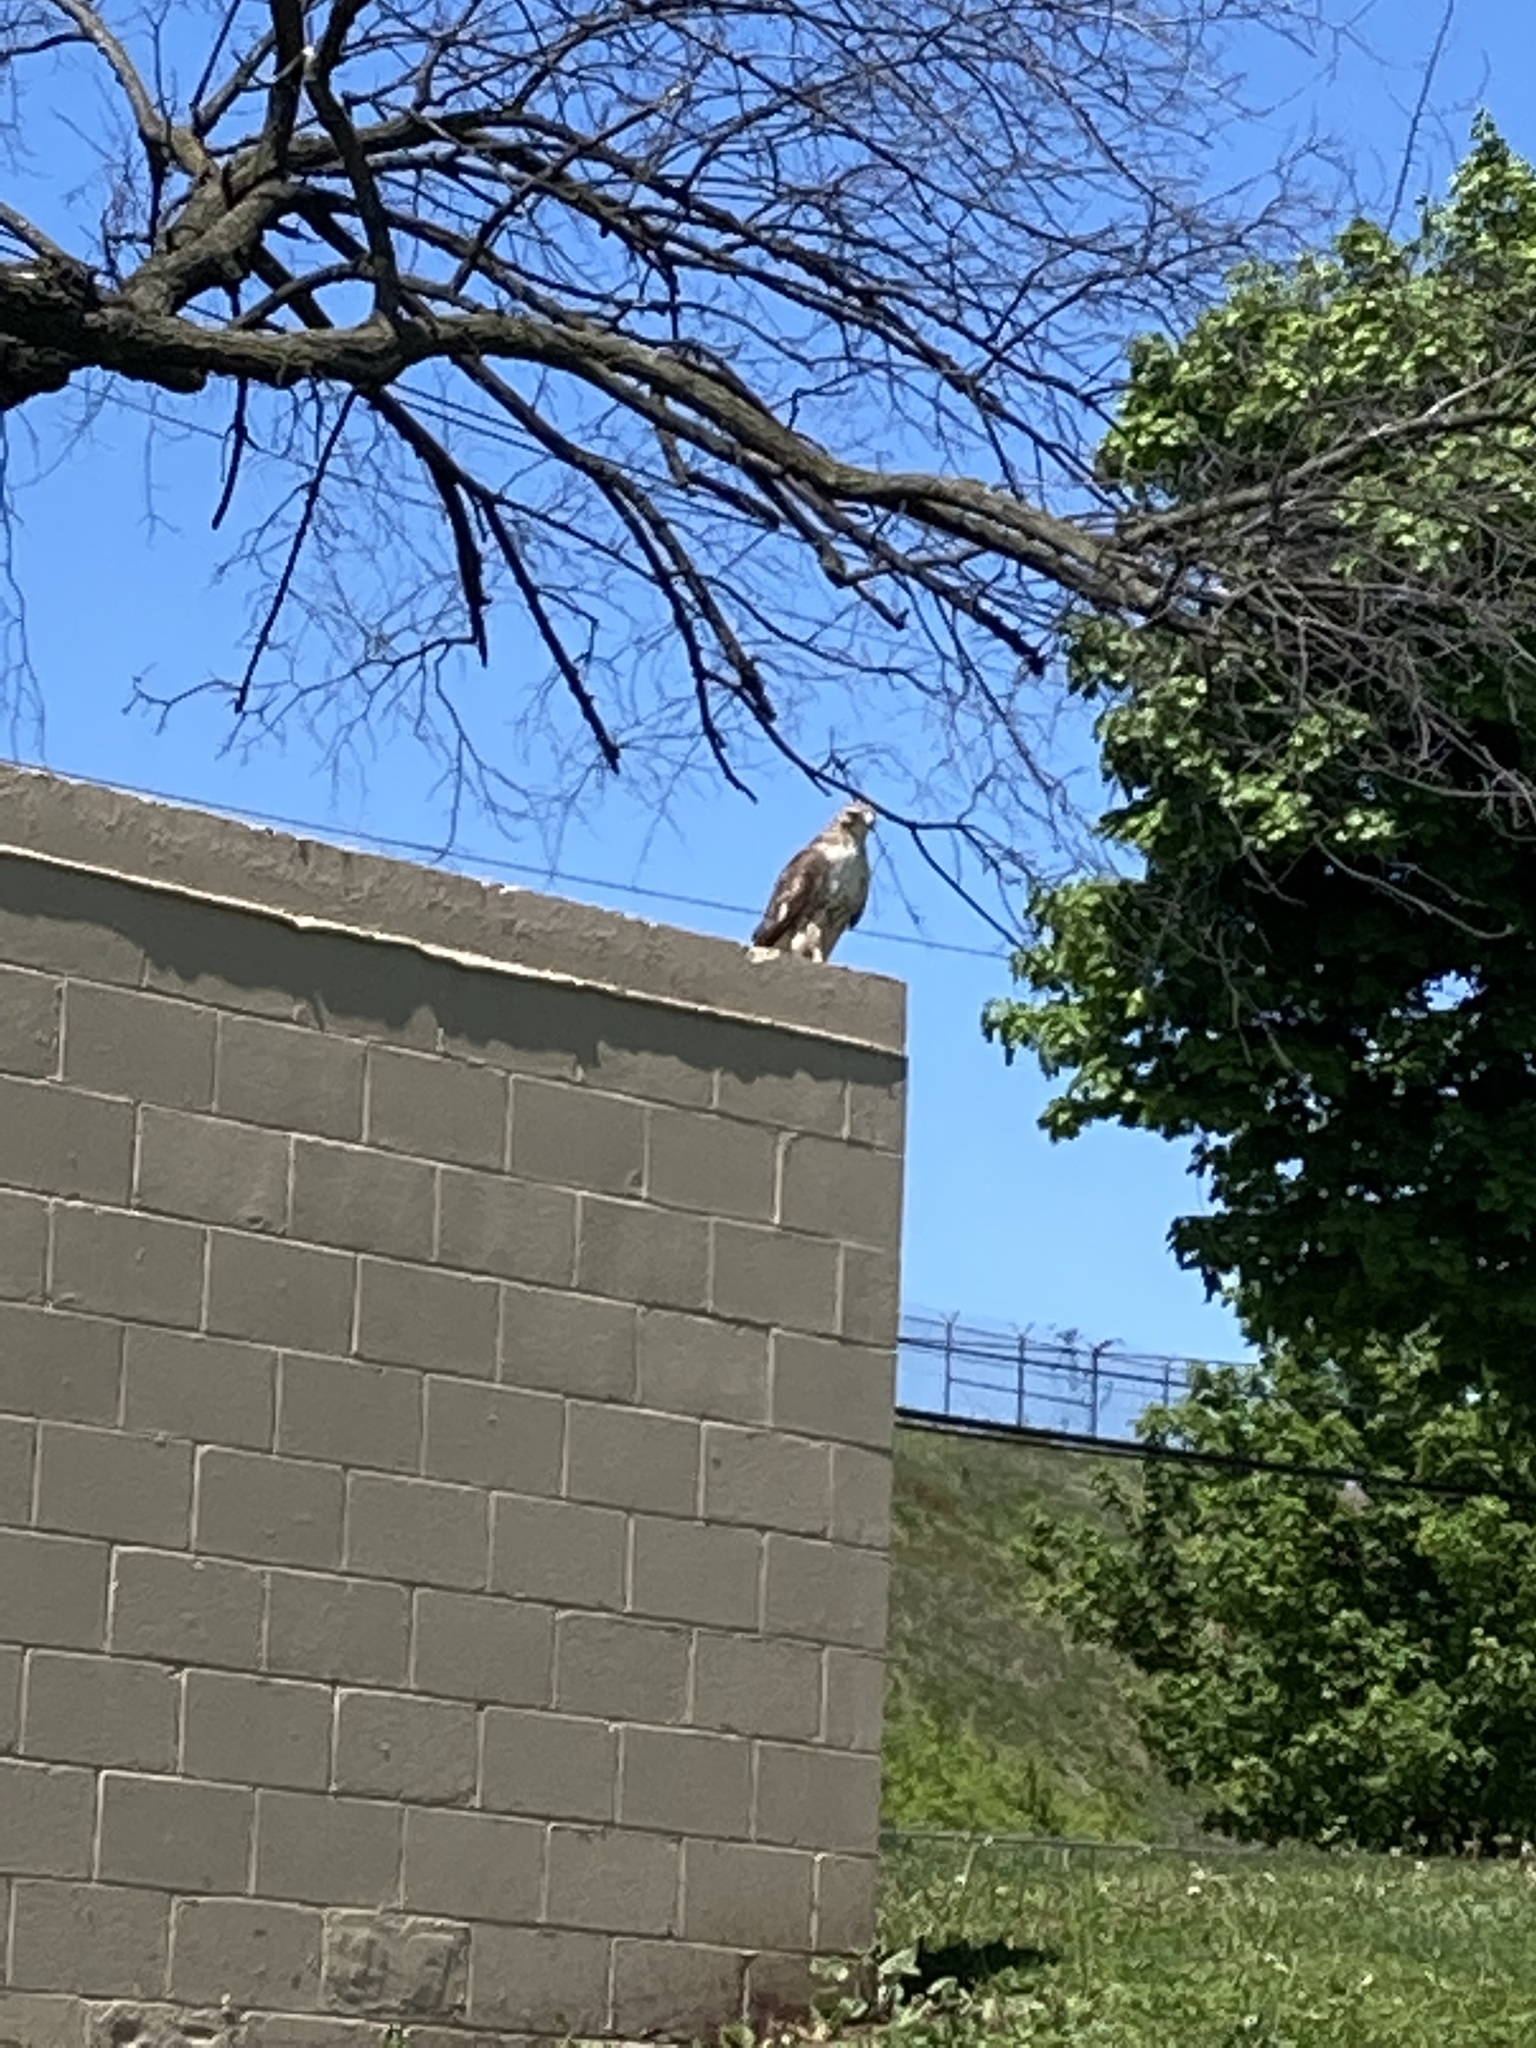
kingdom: Animalia
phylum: Chordata
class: Aves
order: Accipitriformes
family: Accipitridae
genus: Buteo
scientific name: Buteo jamaicensis
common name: Red-tailed hawk
